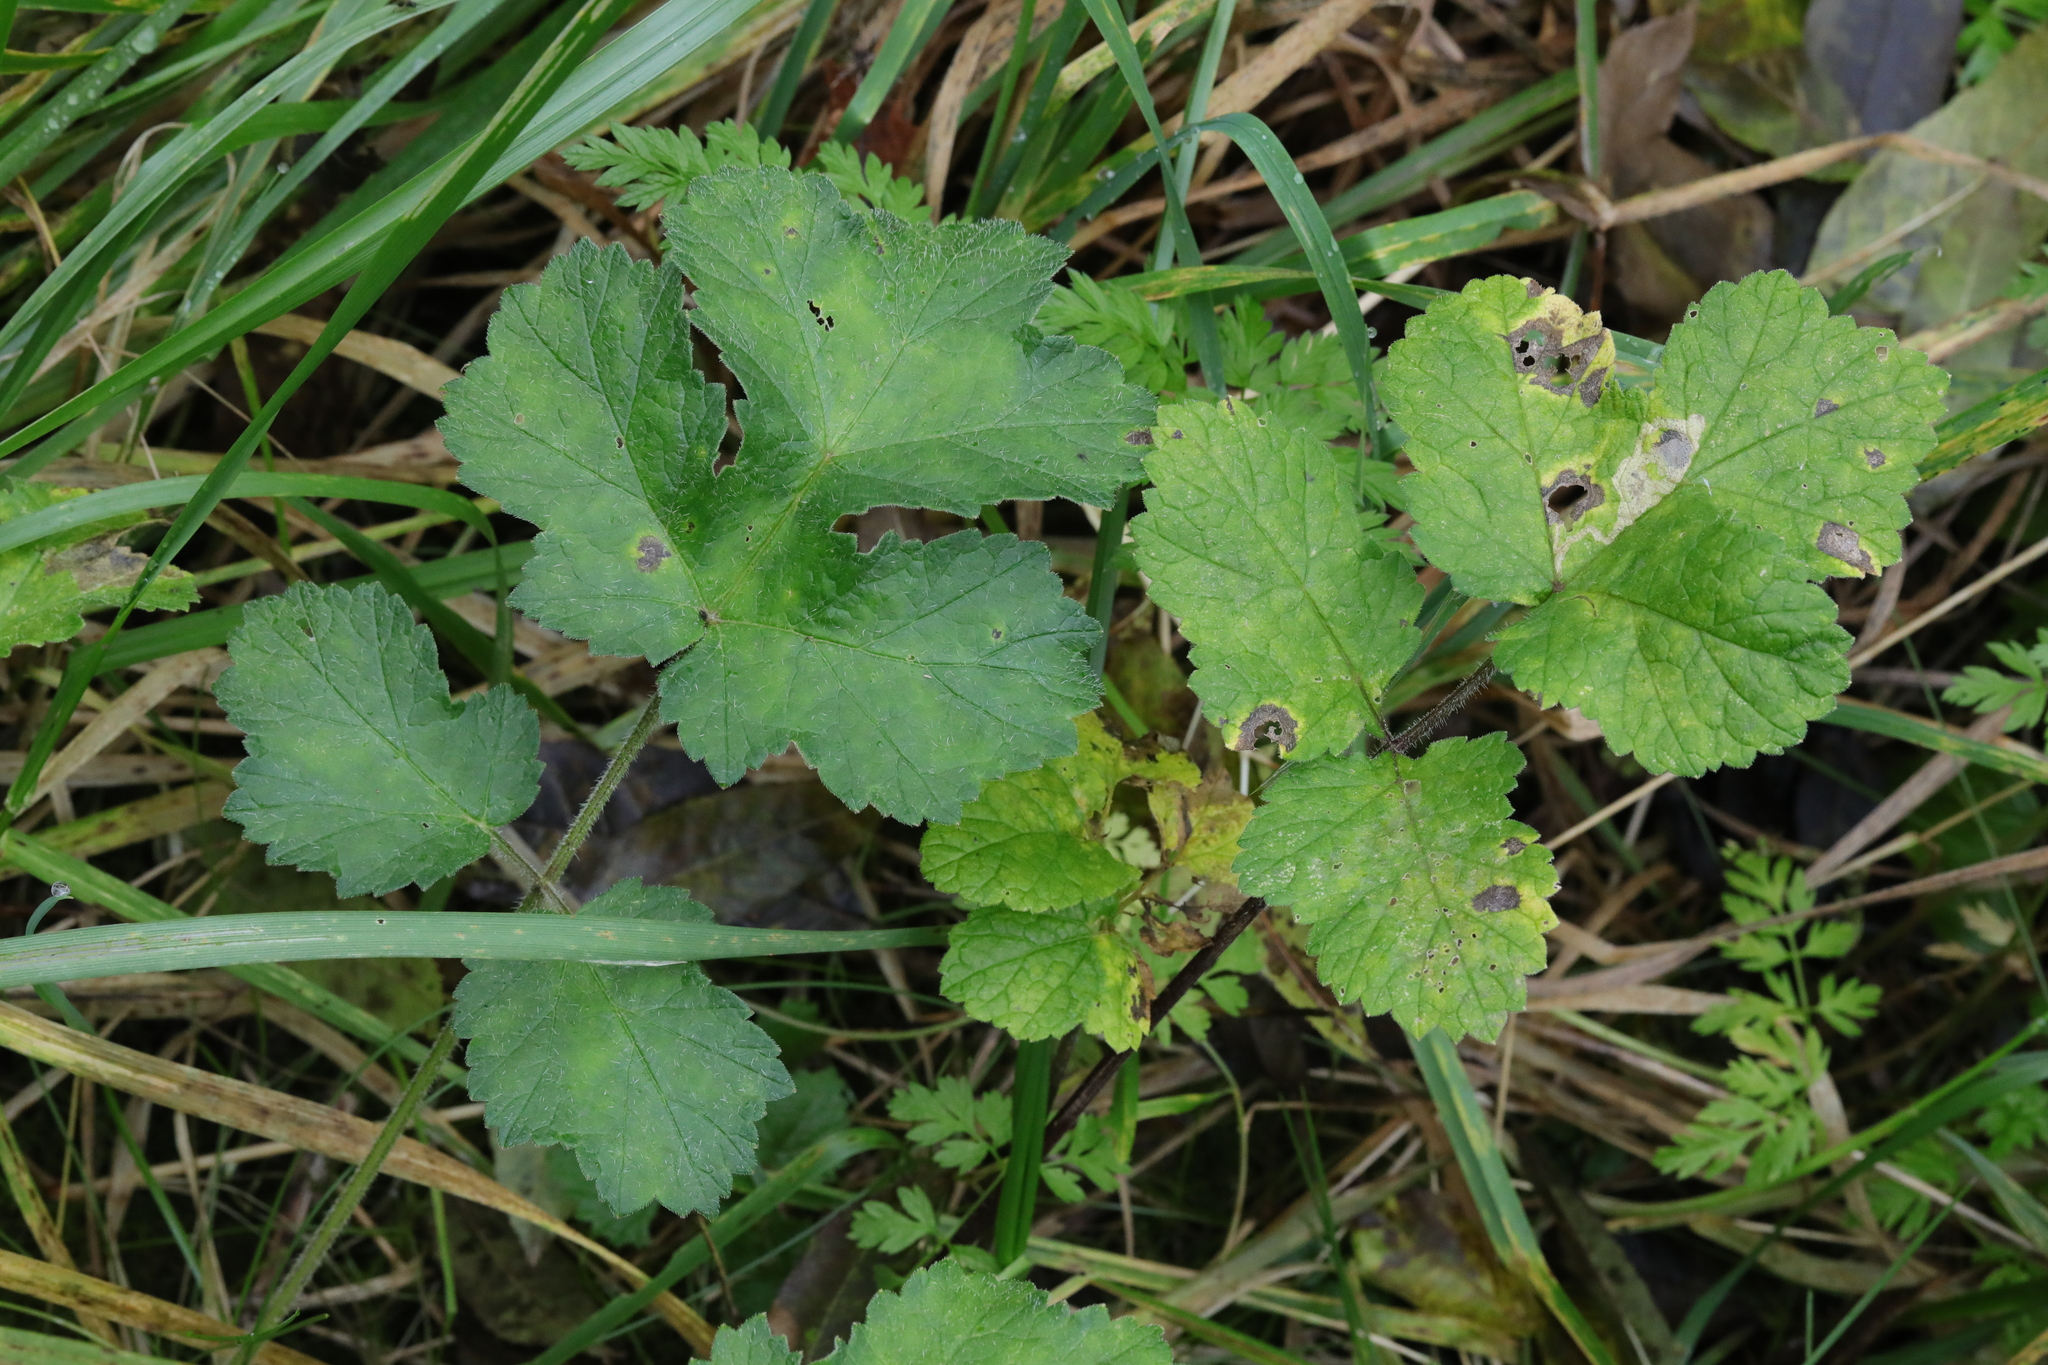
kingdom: Plantae
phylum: Tracheophyta
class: Magnoliopsida
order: Apiales
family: Apiaceae
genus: Heracleum
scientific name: Heracleum sphondylium
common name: Hogweed
